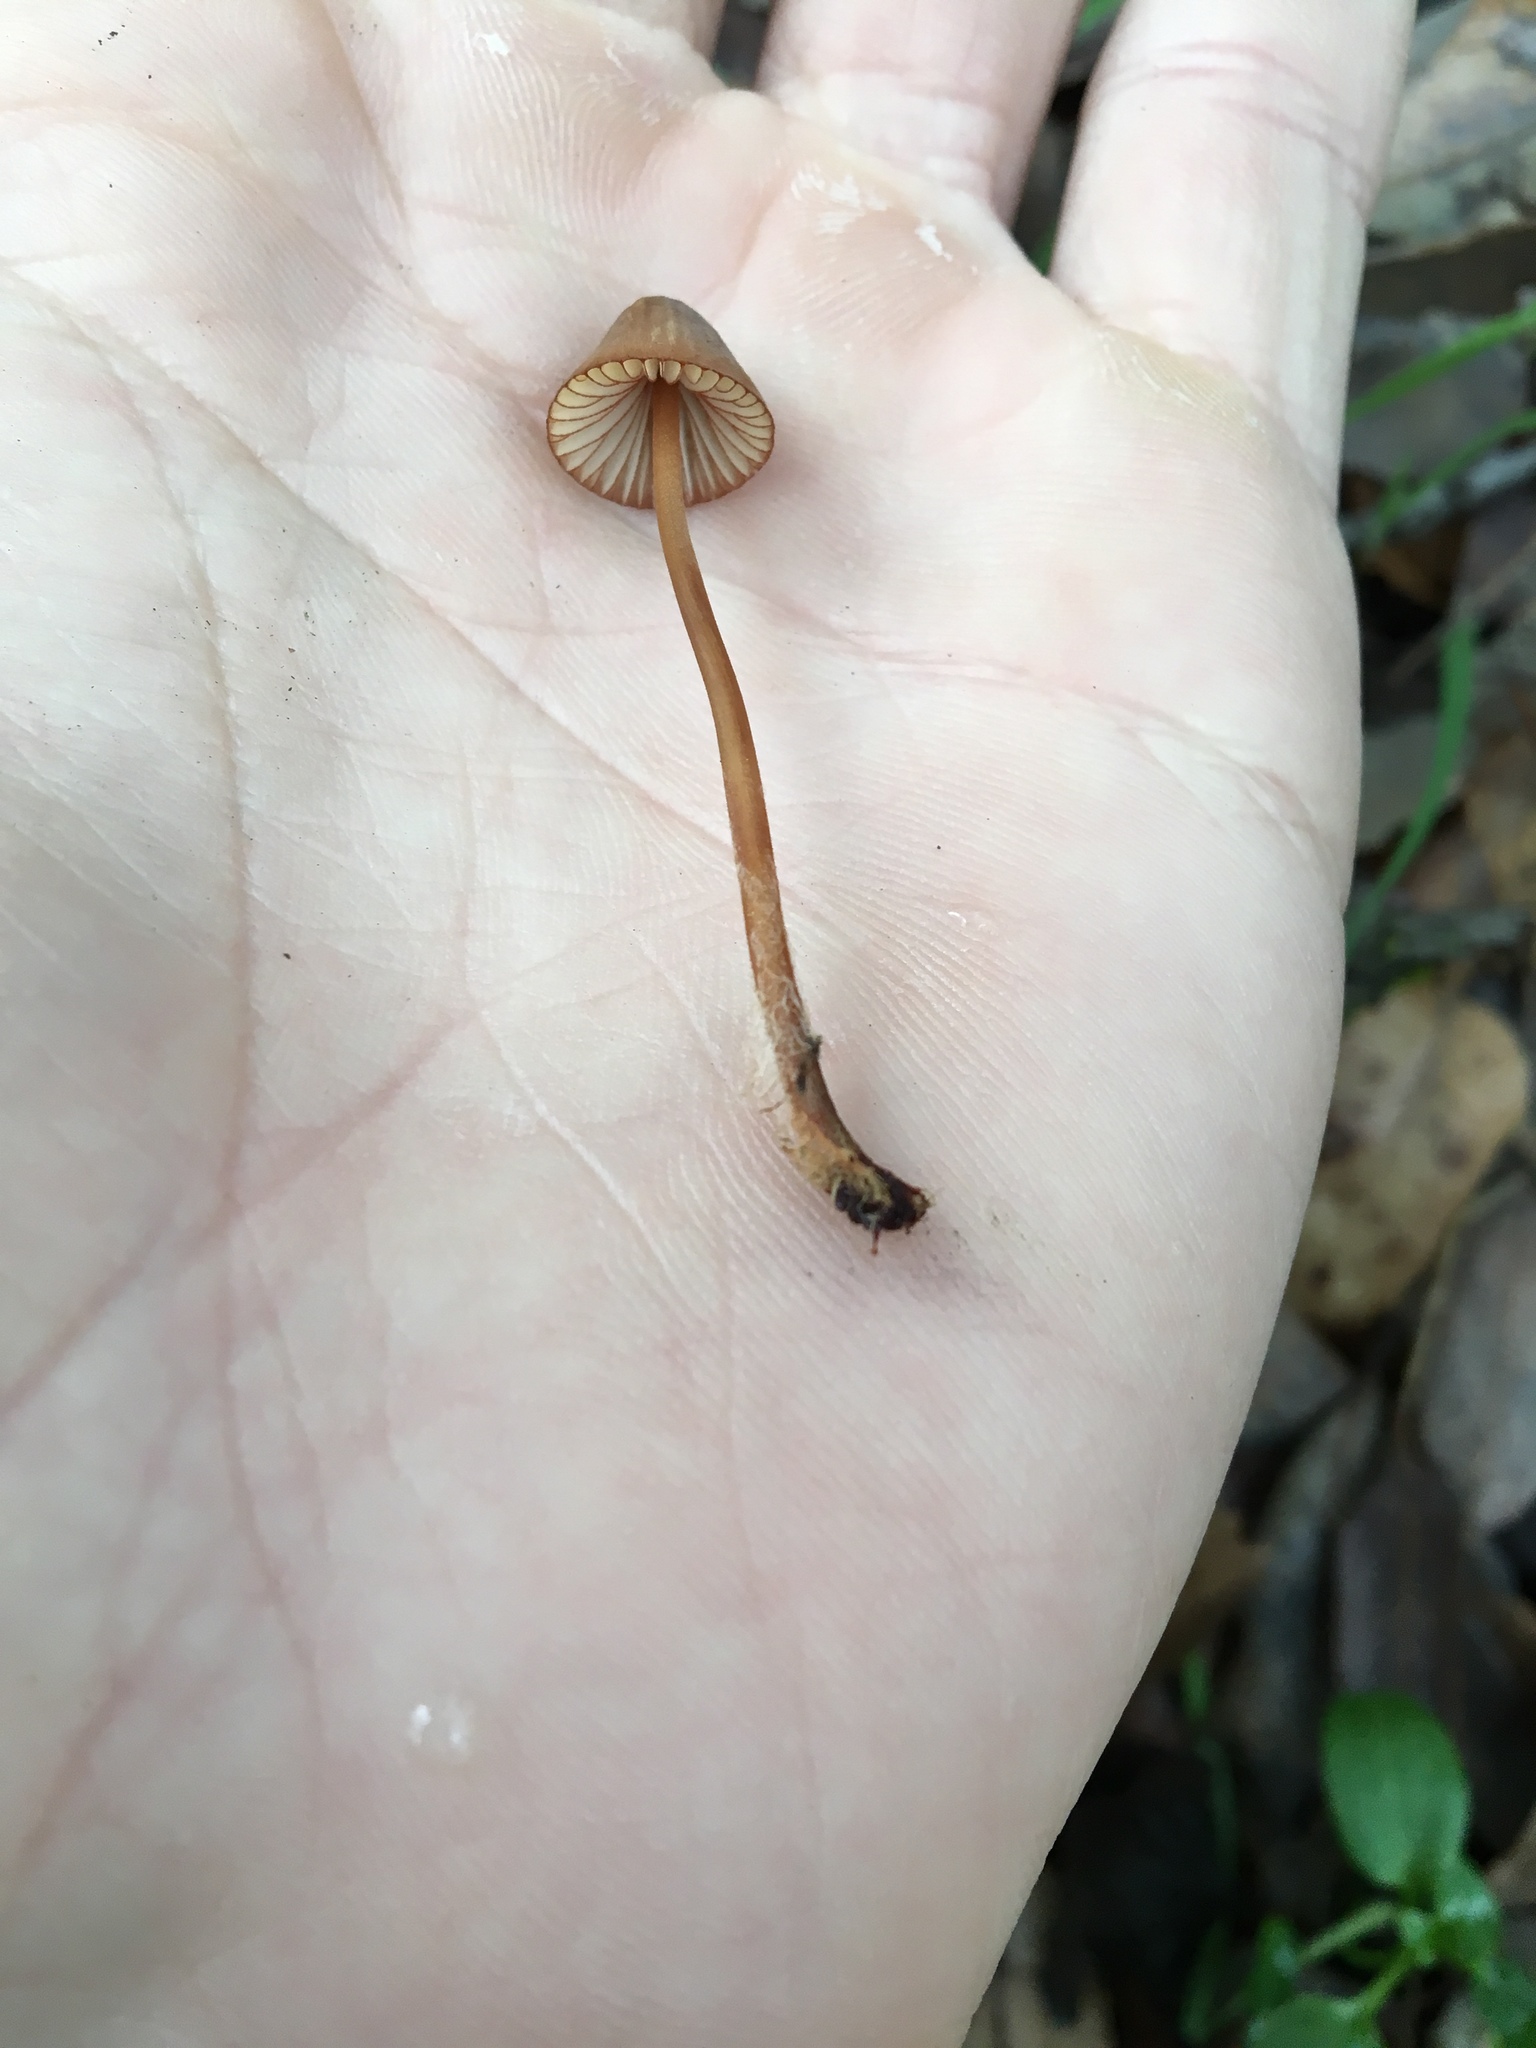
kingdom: Fungi
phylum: Basidiomycota
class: Agaricomycetes
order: Agaricales
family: Mycenaceae
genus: Mycena
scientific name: Mycena
